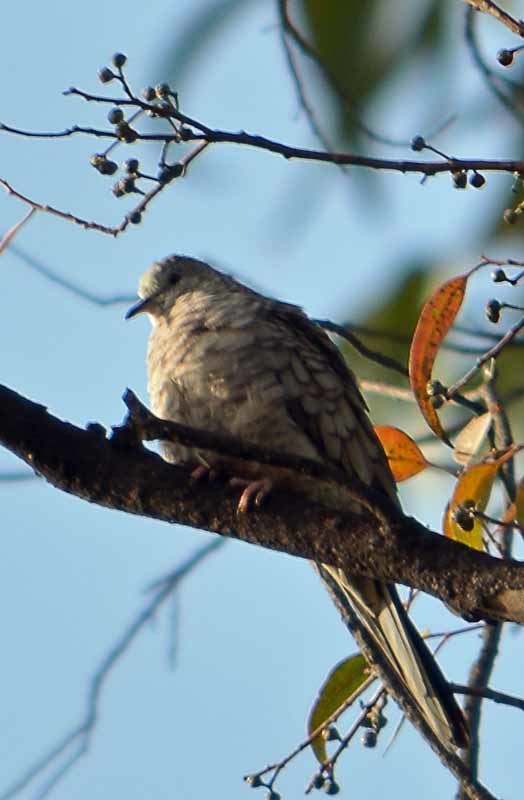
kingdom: Animalia
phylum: Chordata
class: Aves
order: Columbiformes
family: Columbidae
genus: Columbina
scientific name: Columbina inca
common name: Inca dove
